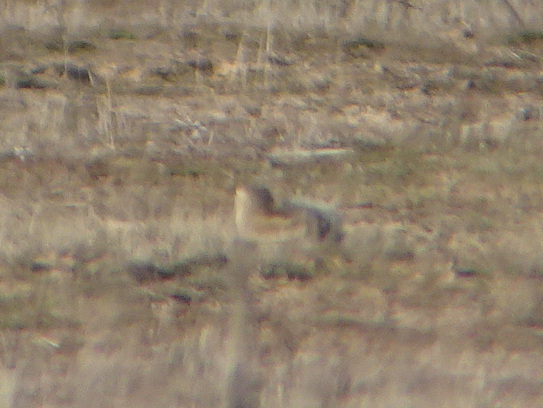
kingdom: Animalia
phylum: Chordata
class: Mammalia
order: Rodentia
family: Sciuridae
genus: Ammospermophilus
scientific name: Ammospermophilus nelsoni
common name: Nelson's antelope squirrel
